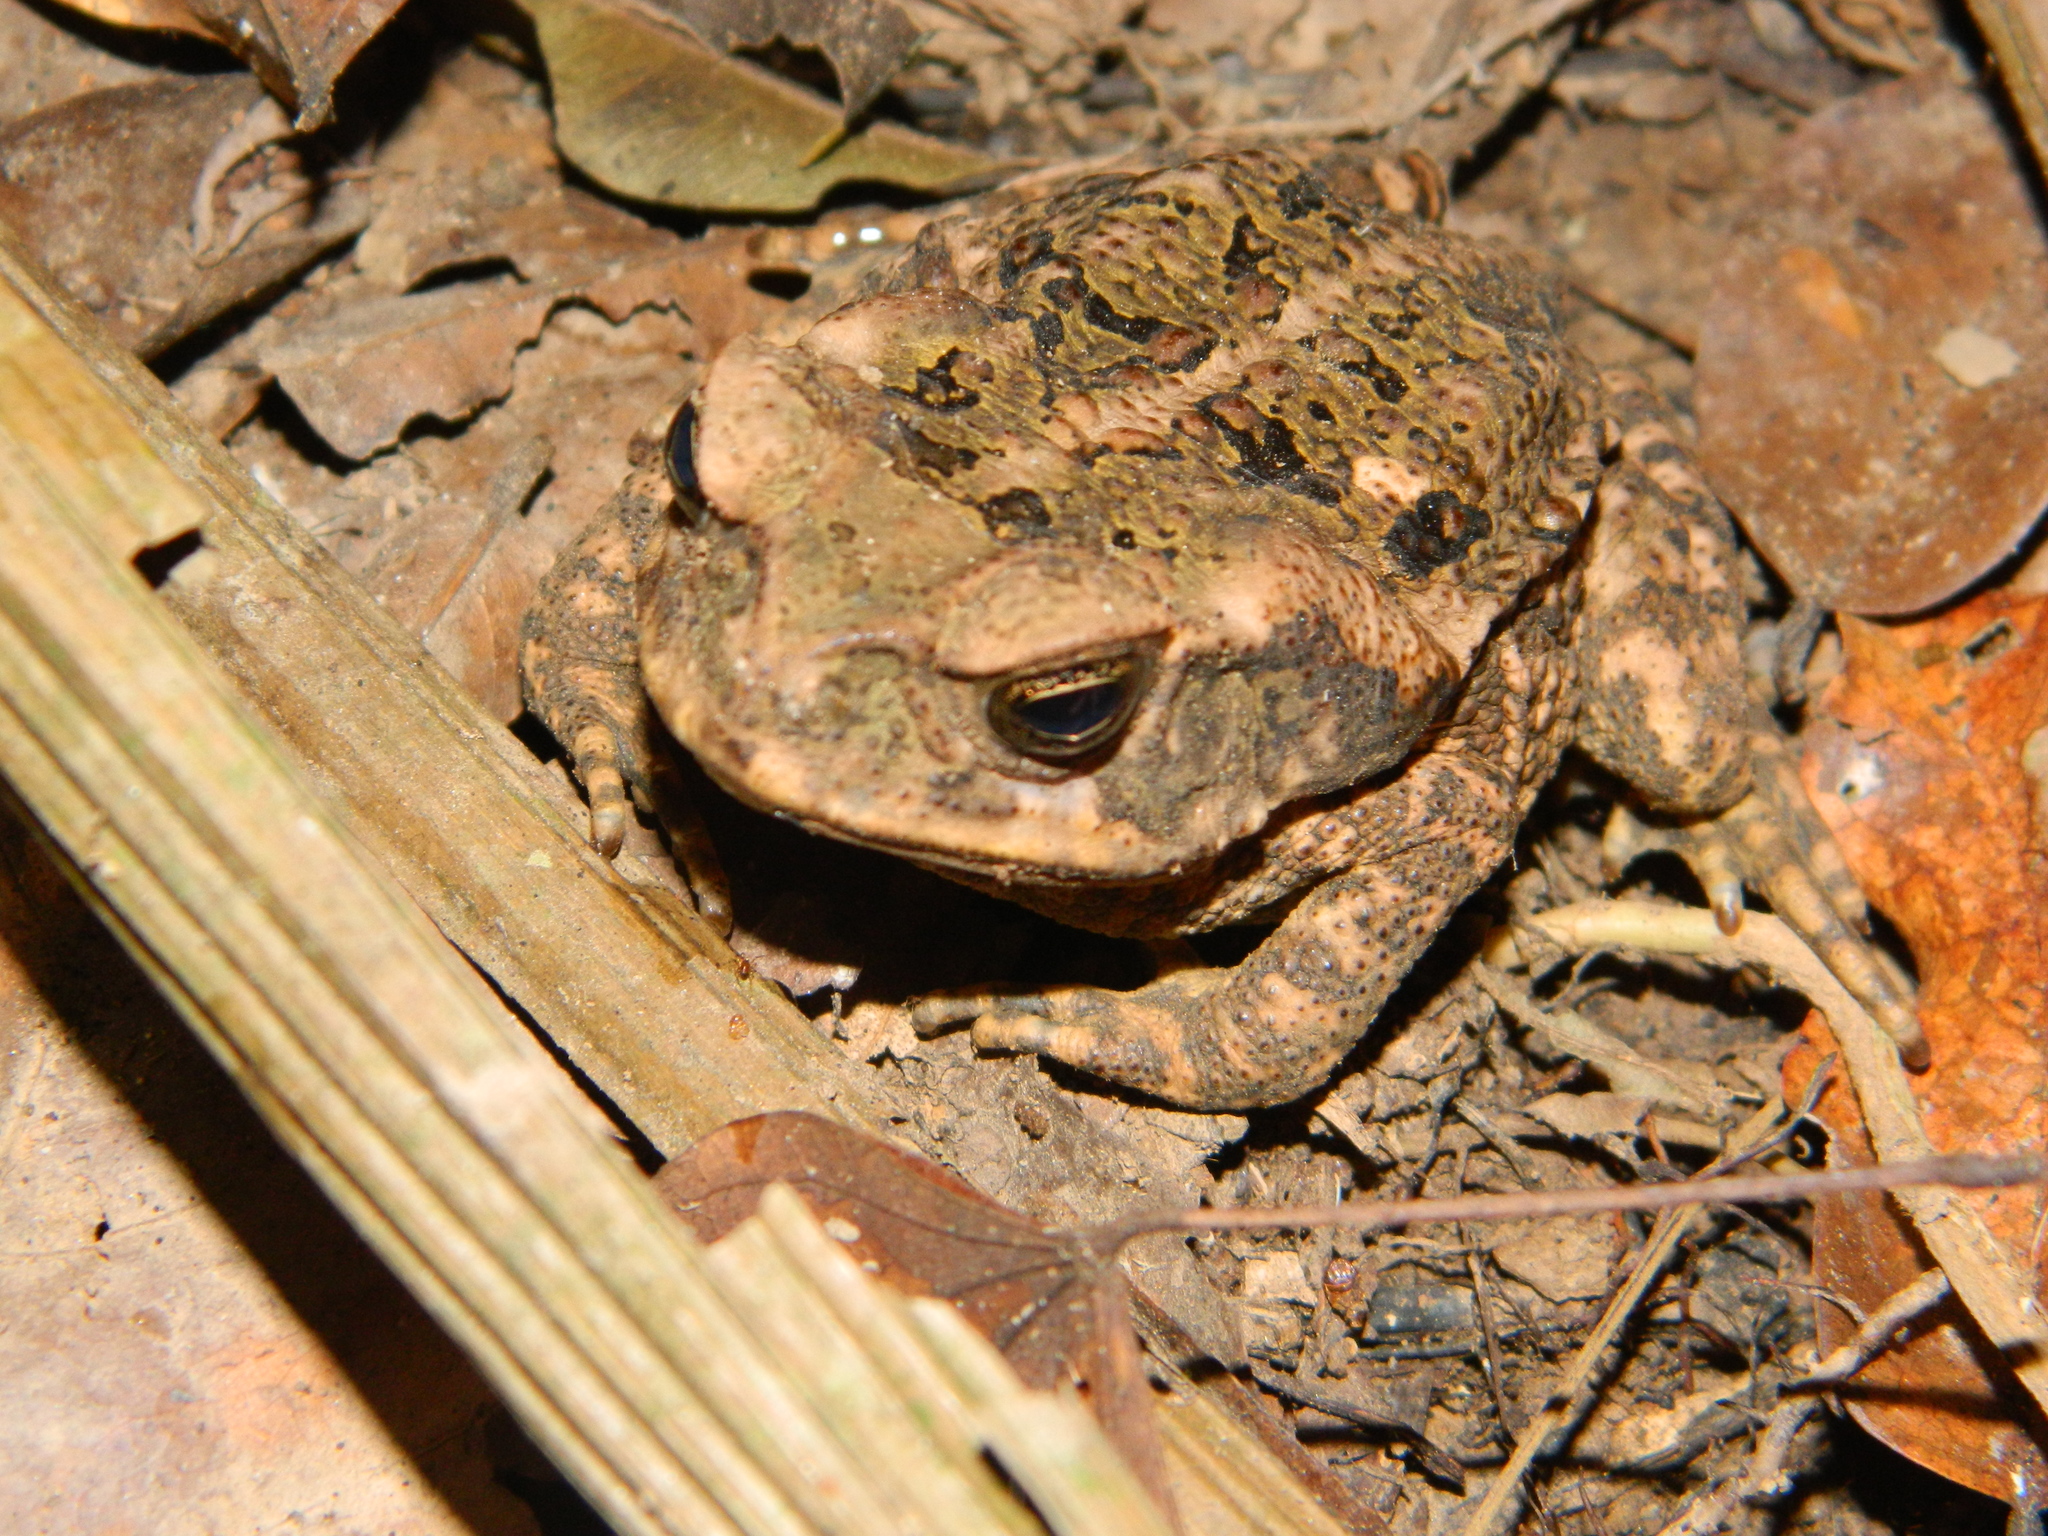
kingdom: Animalia
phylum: Chordata
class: Amphibia
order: Anura
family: Bufonidae
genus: Rhinella
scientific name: Rhinella marina
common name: Cane toad
